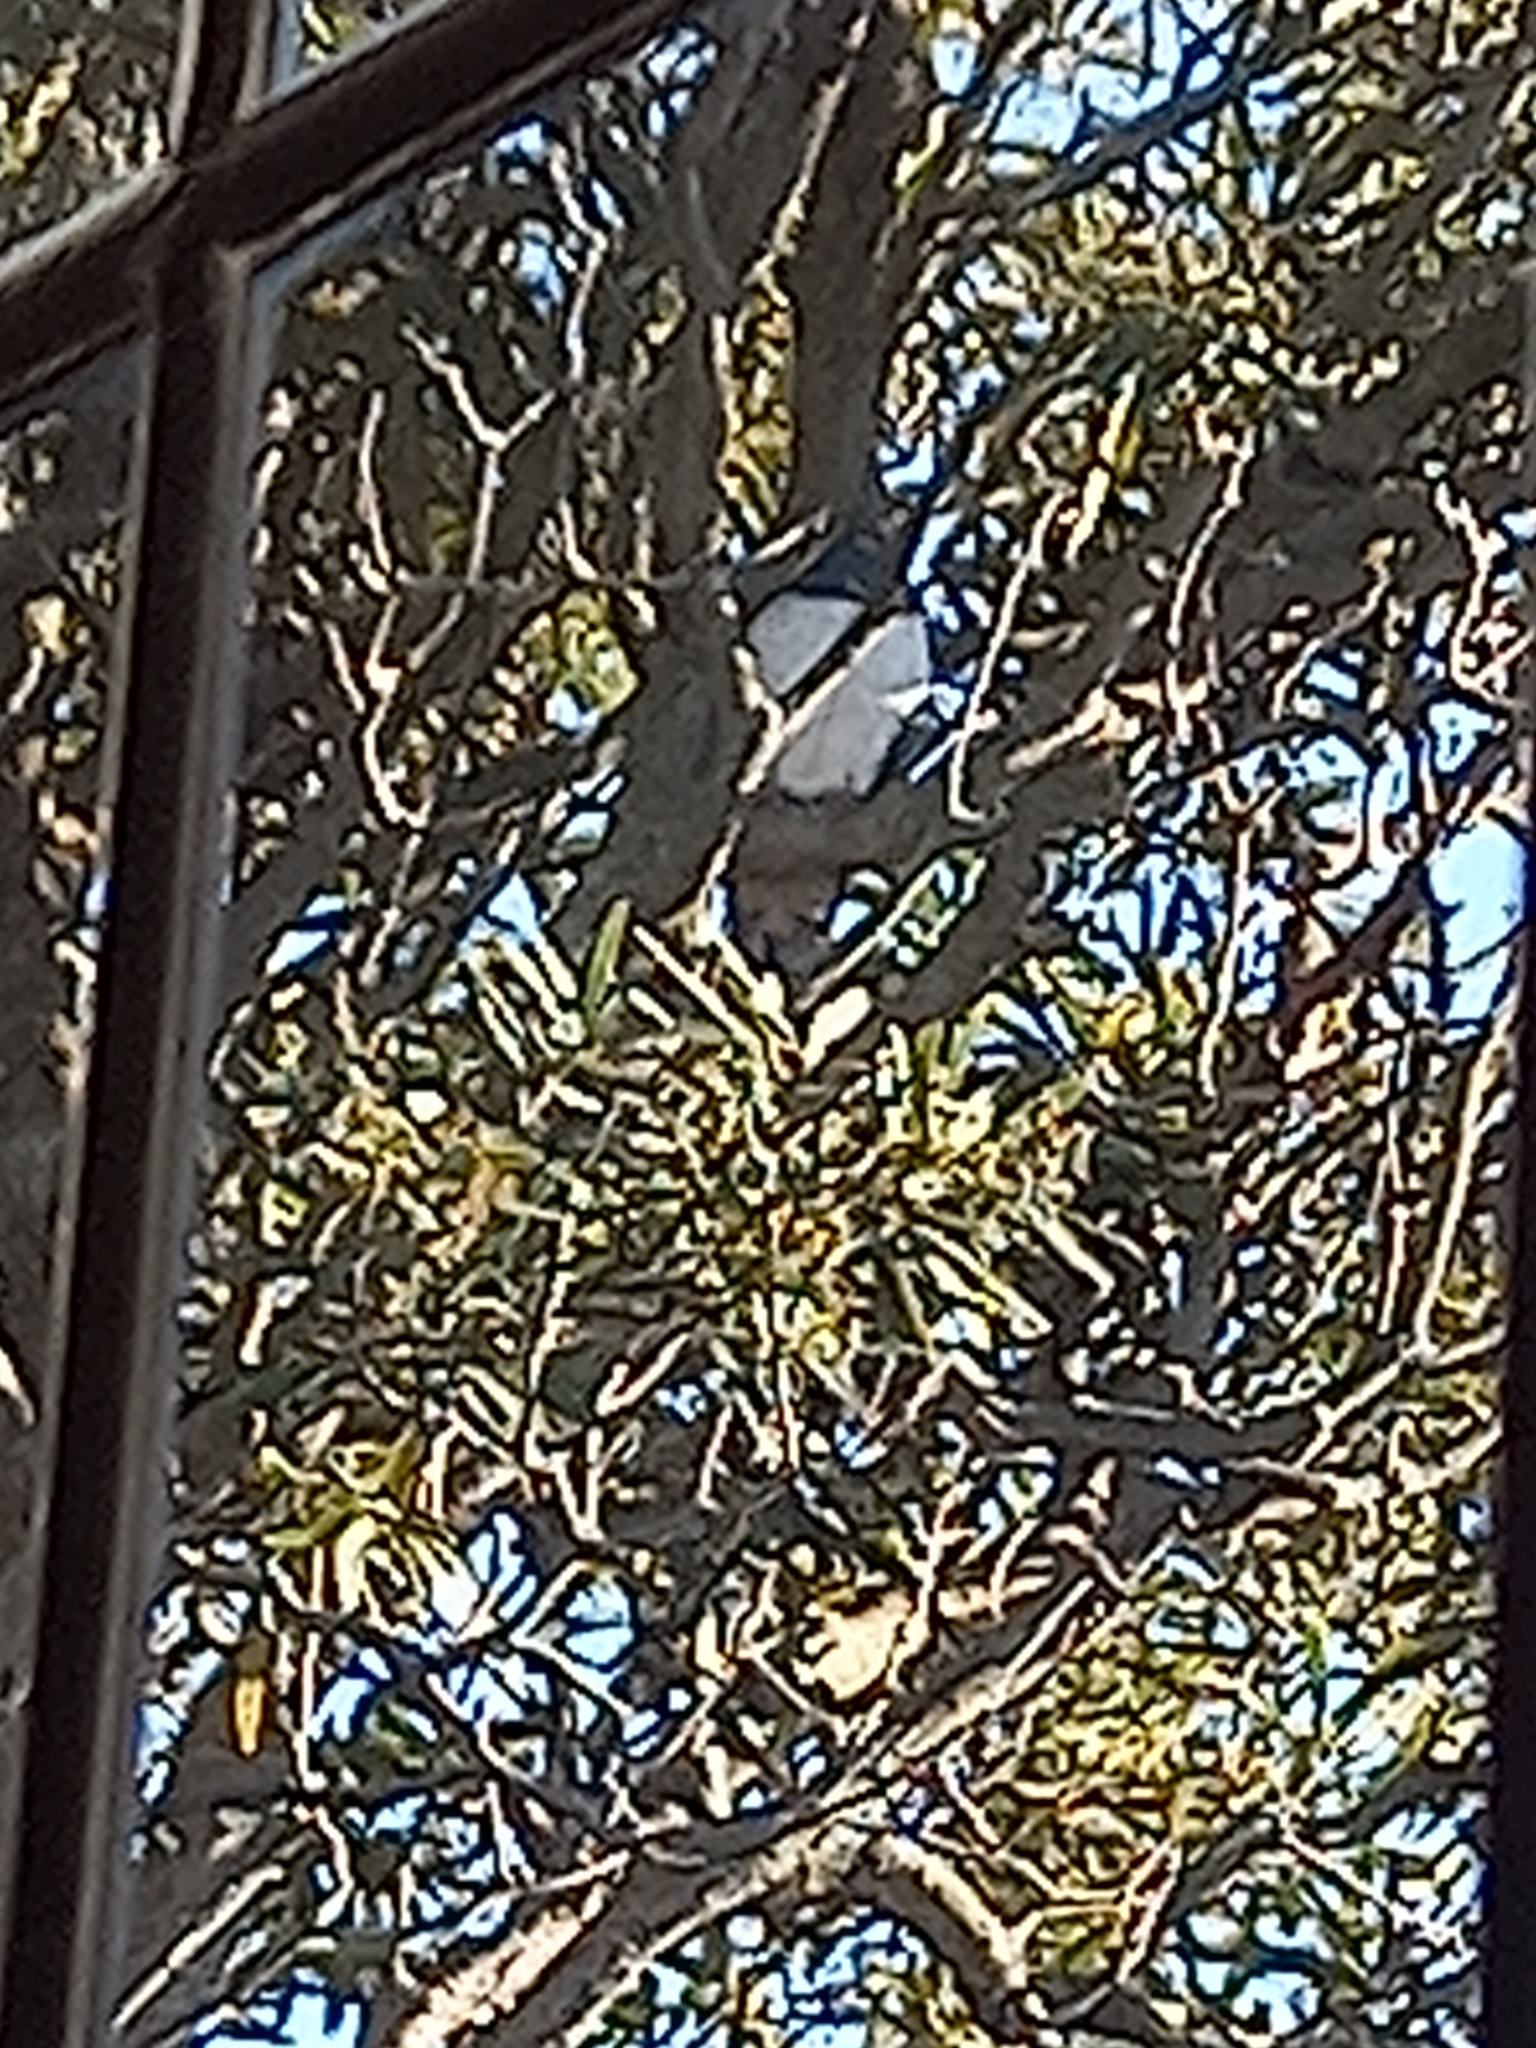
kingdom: Animalia
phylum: Chordata
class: Aves
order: Columbiformes
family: Columbidae
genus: Hemiphaga
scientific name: Hemiphaga novaeseelandiae
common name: New zealand pigeon
